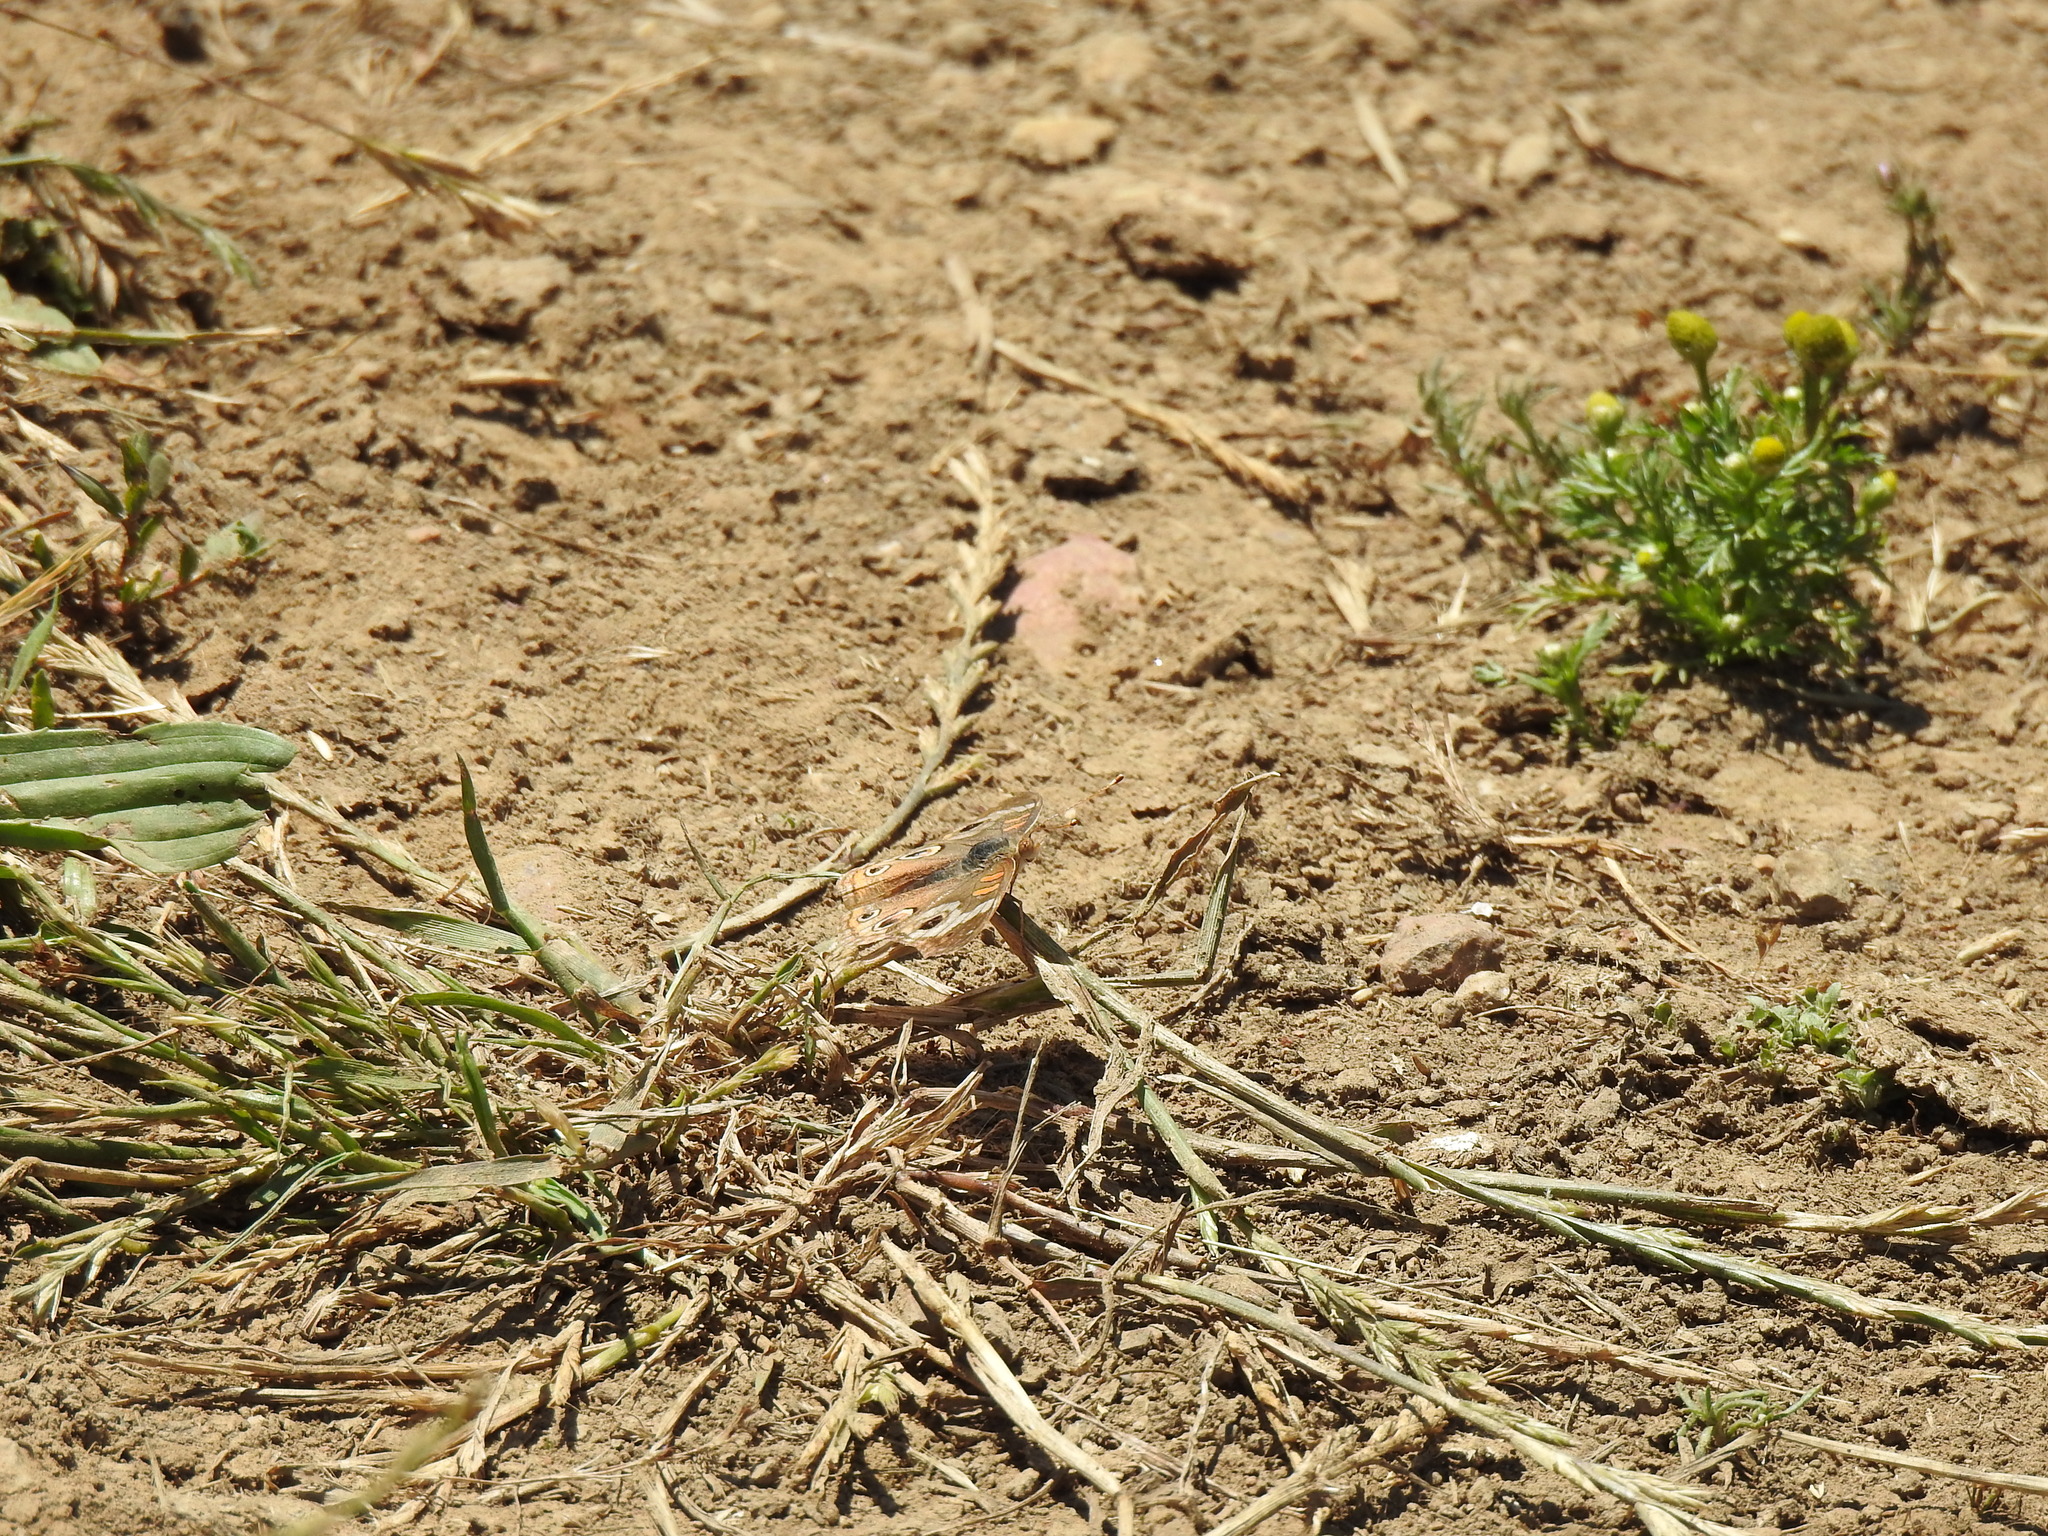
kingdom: Animalia
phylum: Arthropoda
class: Insecta
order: Lepidoptera
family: Nymphalidae
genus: Junonia
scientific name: Junonia grisea
